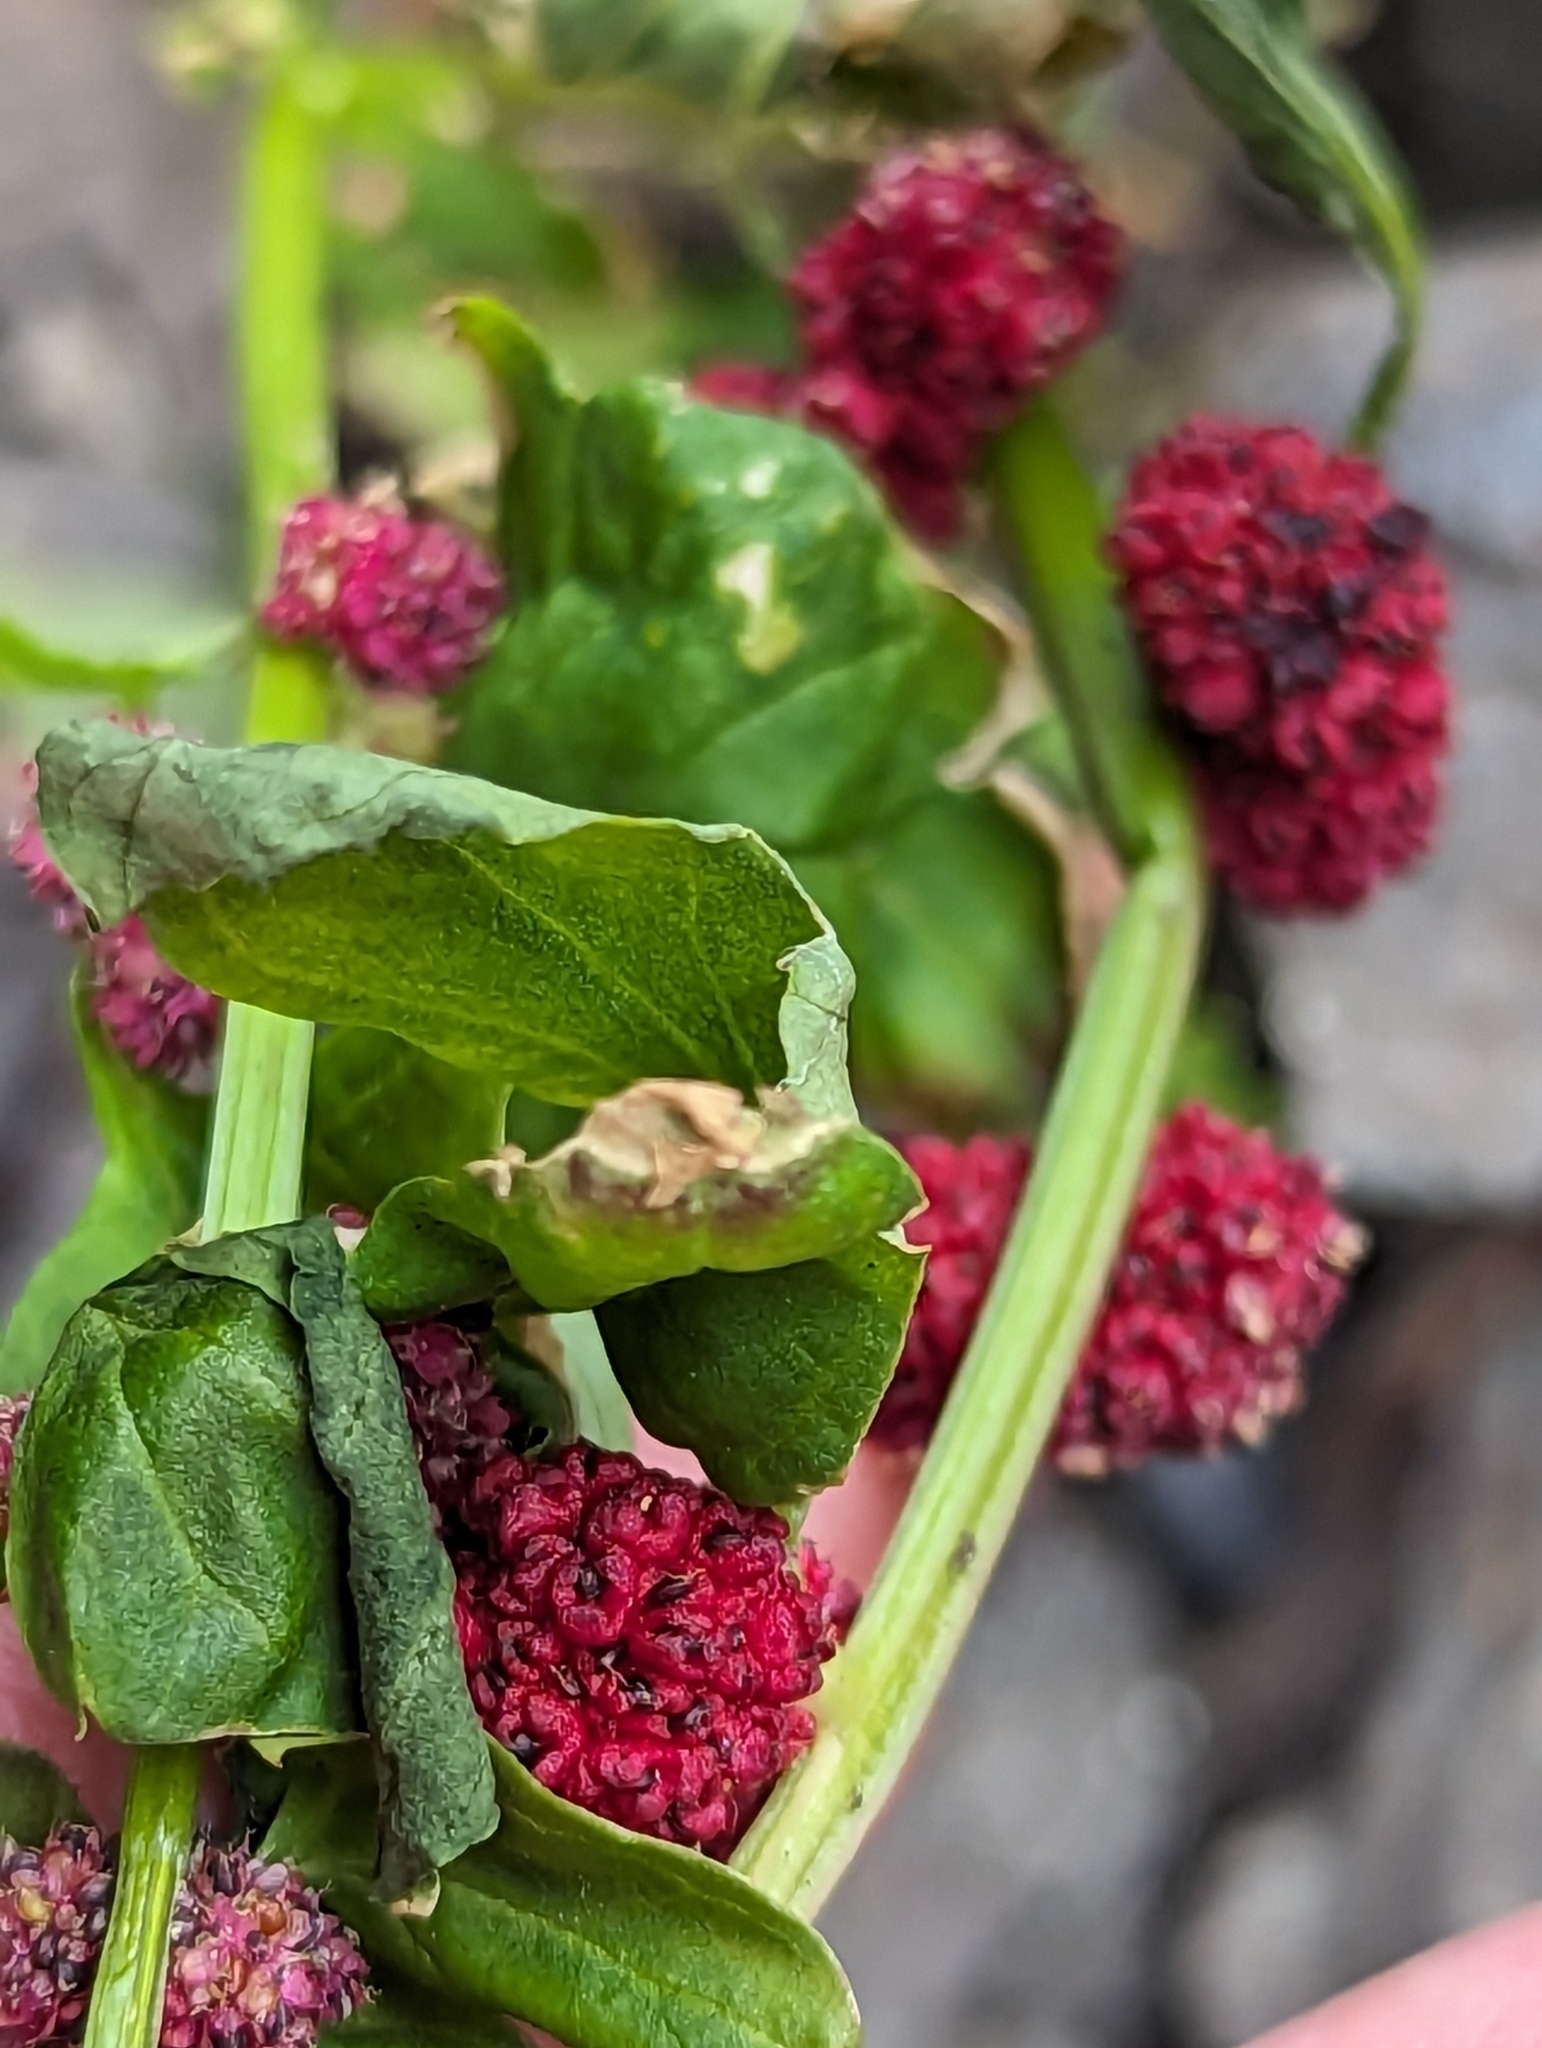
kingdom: Plantae
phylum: Tracheophyta
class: Magnoliopsida
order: Caryophyllales
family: Amaranthaceae
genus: Blitum
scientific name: Blitum capitatum
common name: Strawberry-blight
